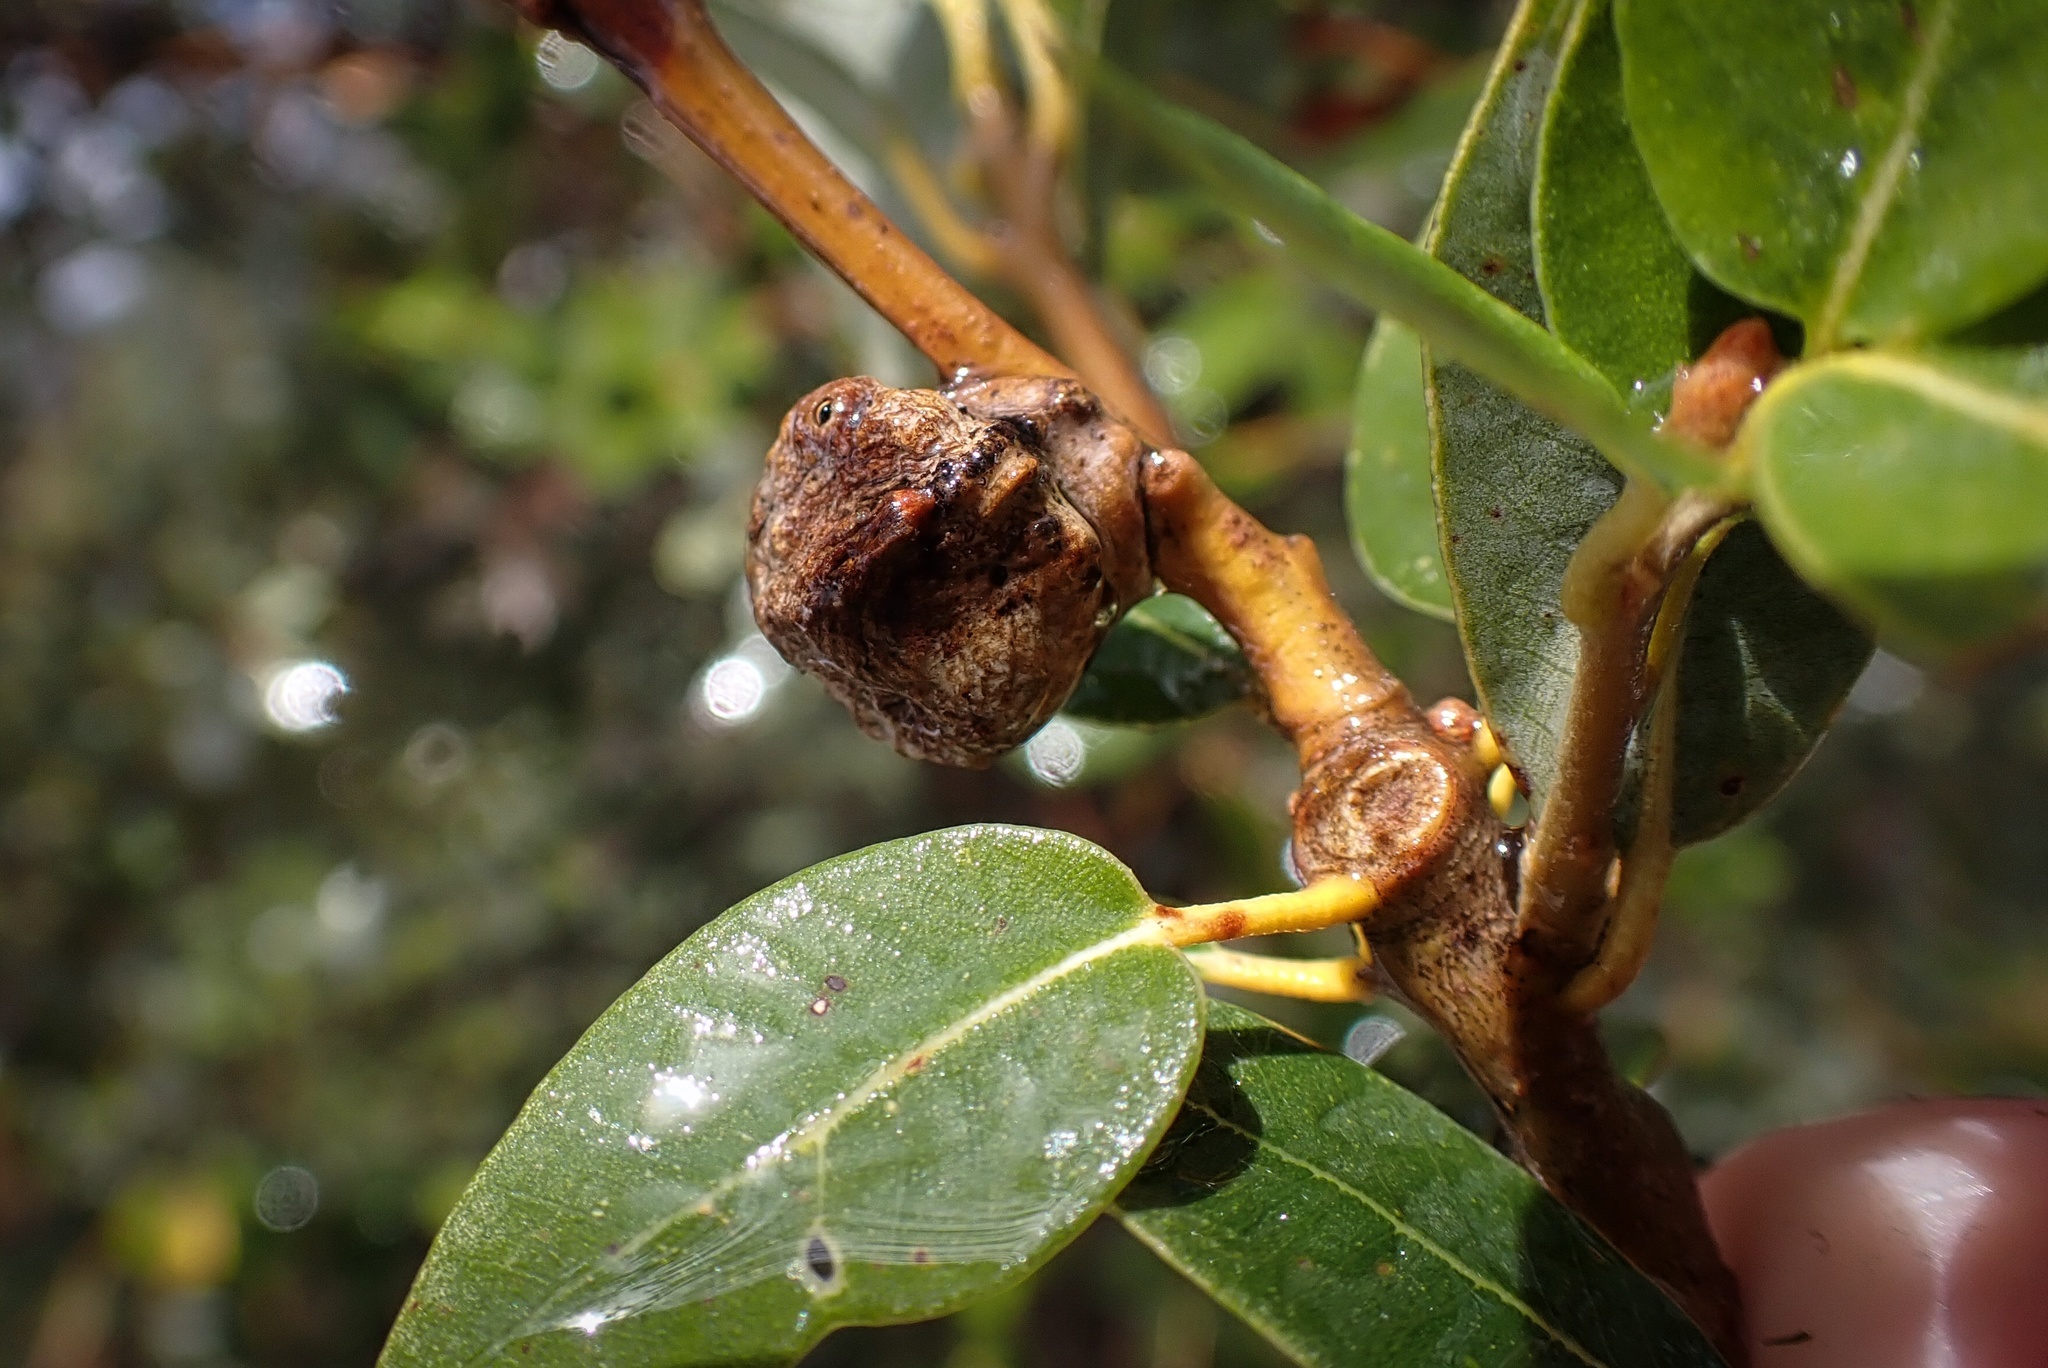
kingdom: Animalia
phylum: Arthropoda
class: Insecta
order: Hymenoptera
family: Cynipidae
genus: Heteroecus
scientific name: Heteroecus
